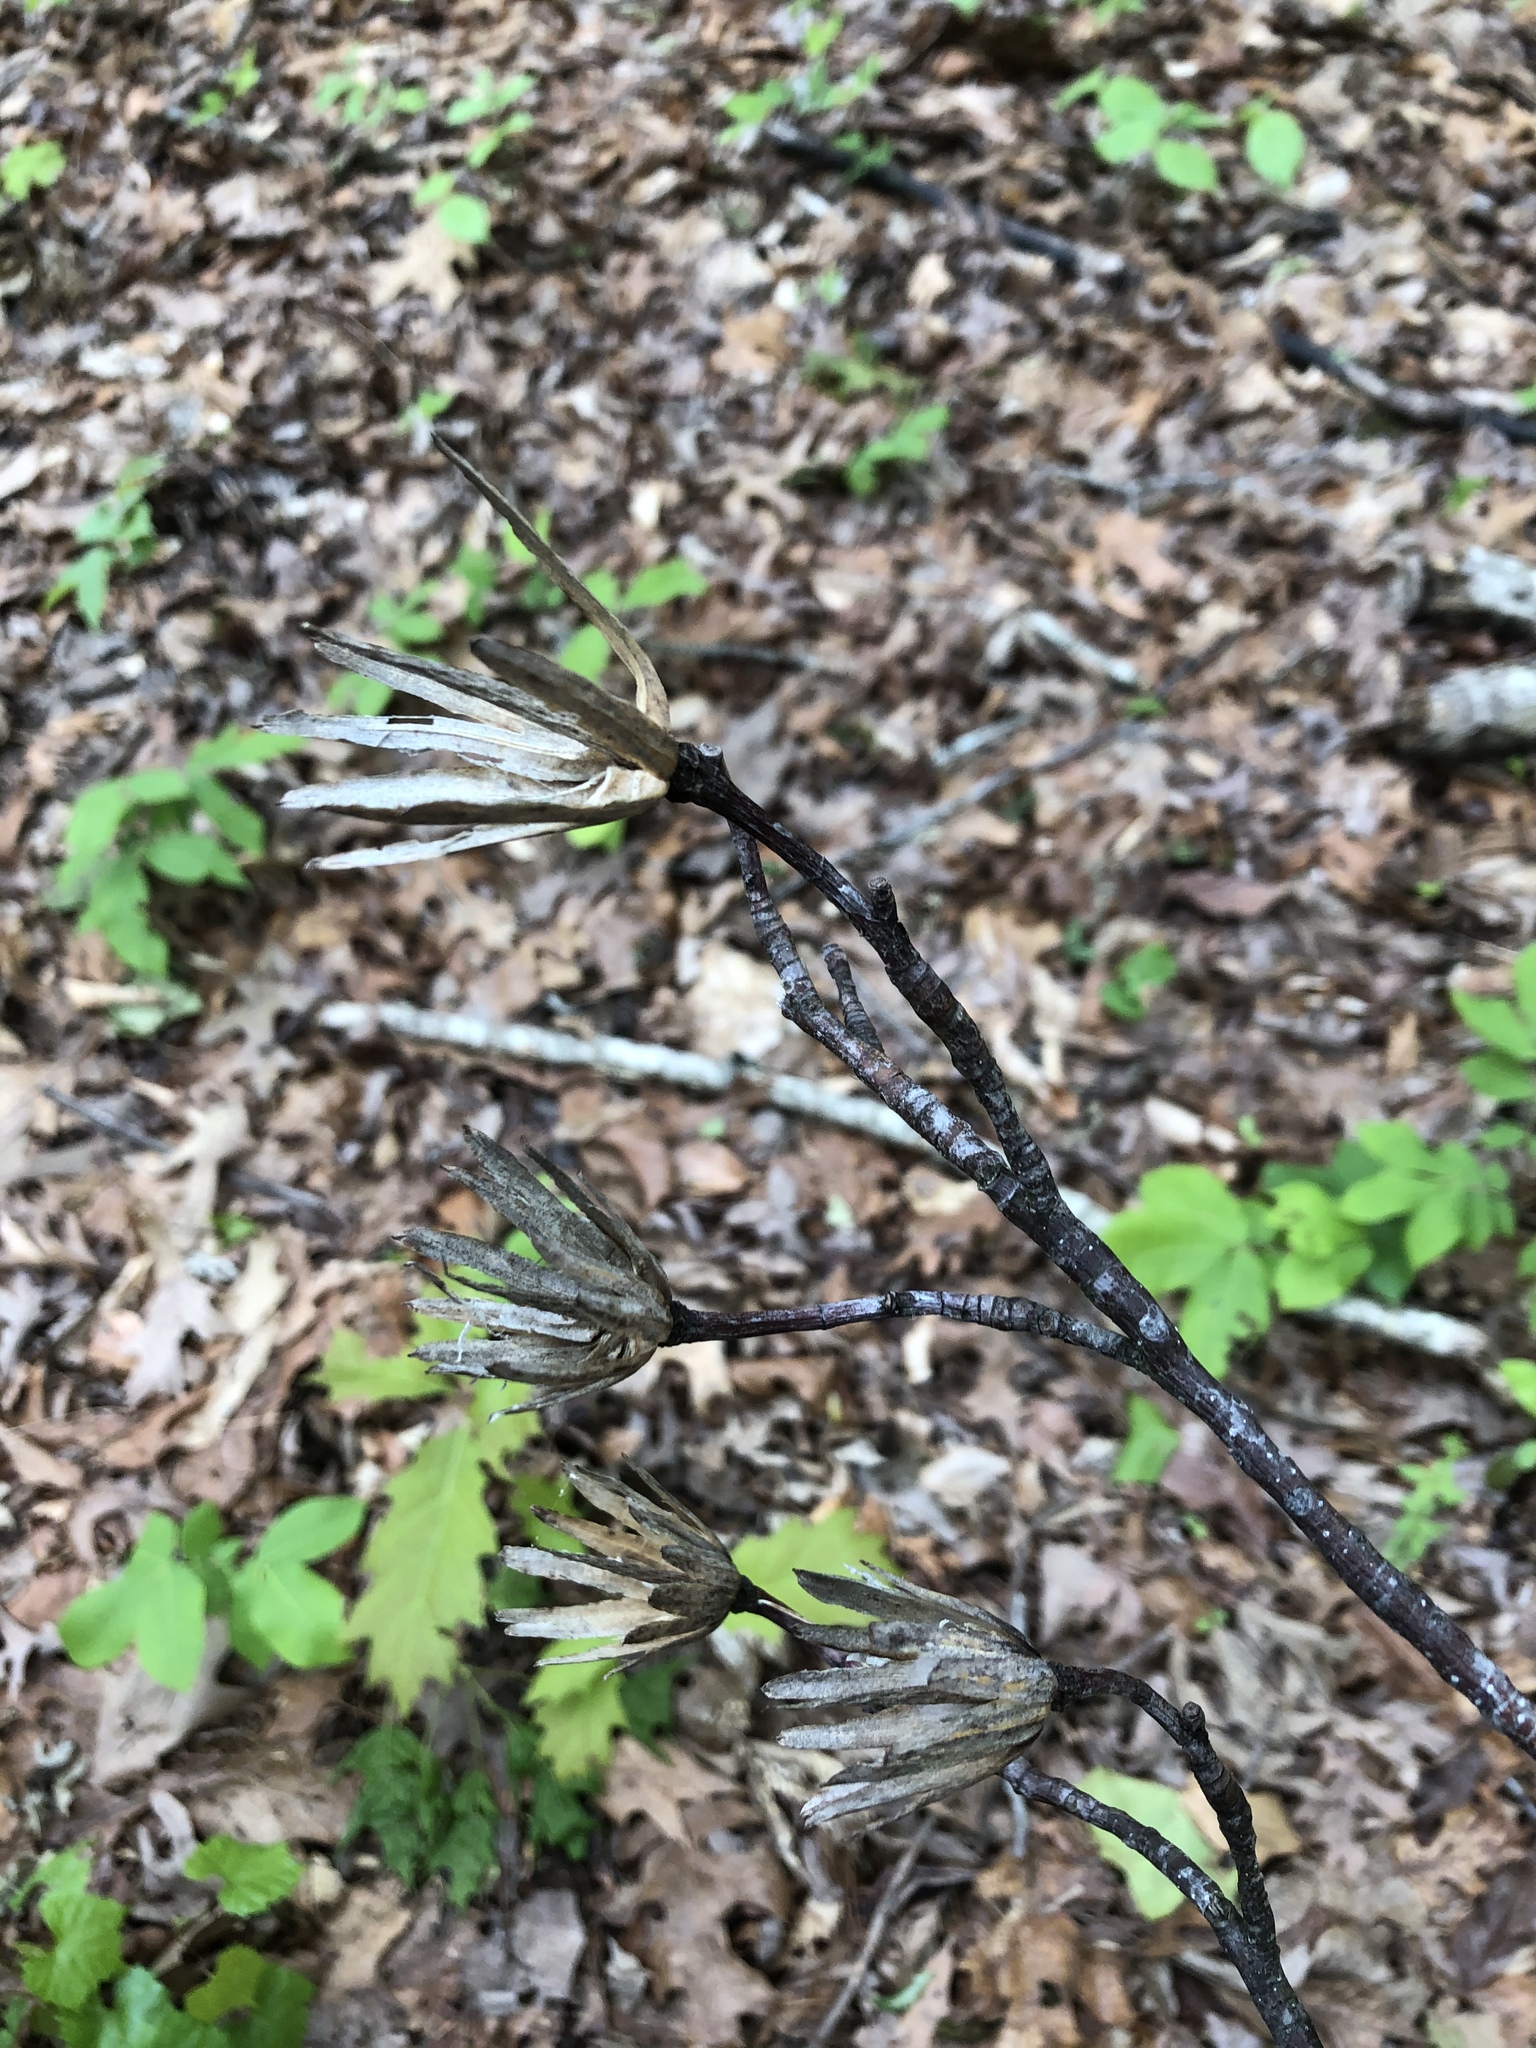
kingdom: Plantae
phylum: Tracheophyta
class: Magnoliopsida
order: Magnoliales
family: Magnoliaceae
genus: Liriodendron
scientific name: Liriodendron tulipifera
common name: Tulip tree
